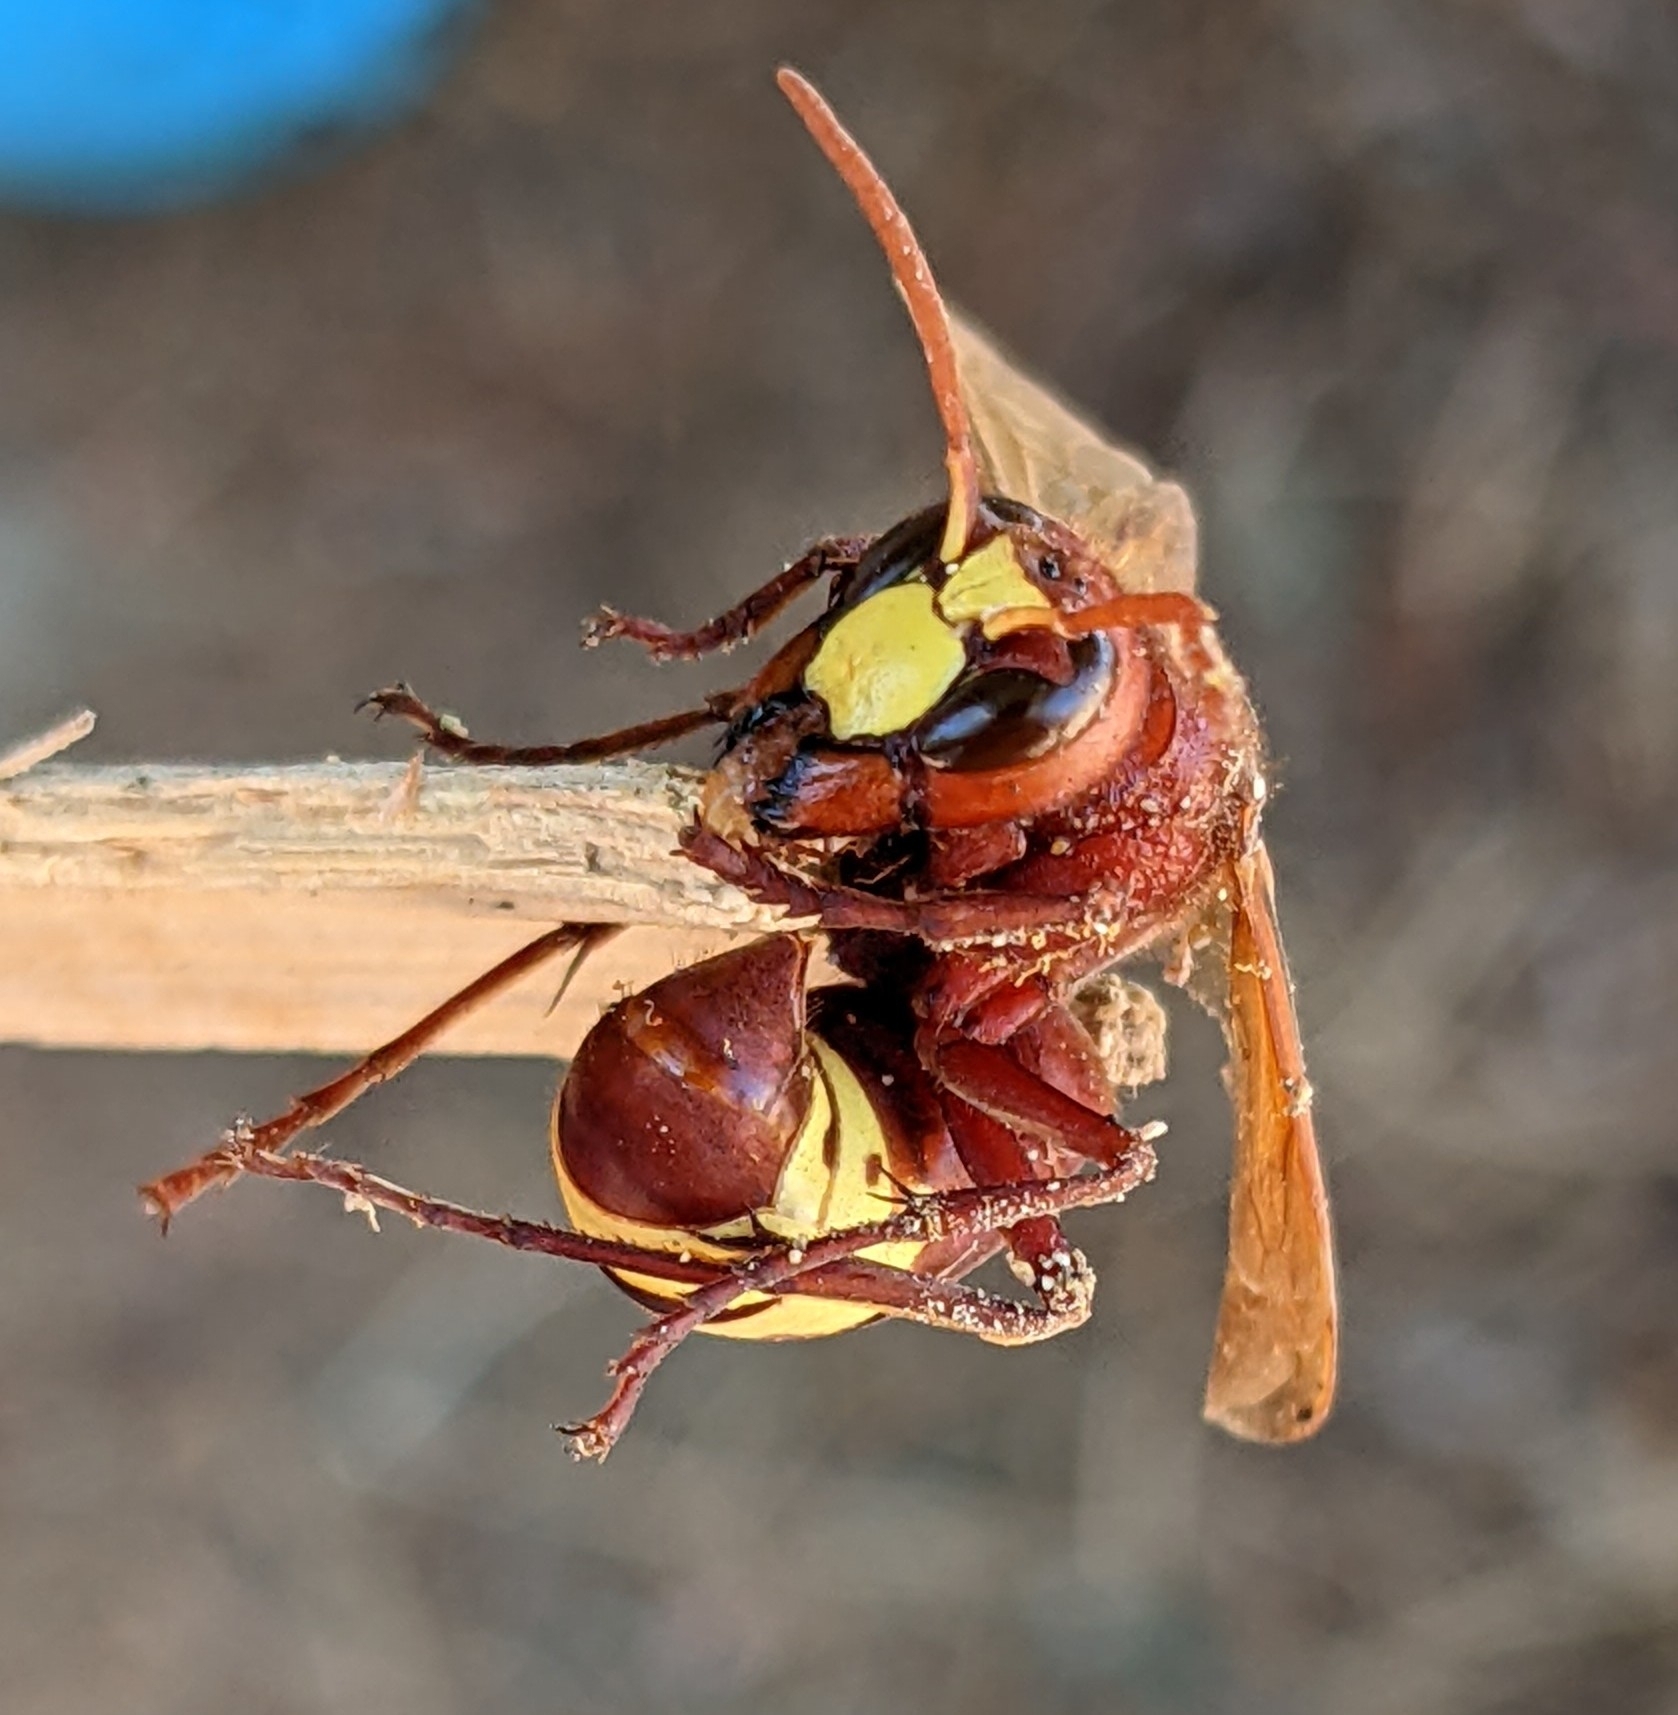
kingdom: Animalia
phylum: Arthropoda
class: Insecta
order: Hymenoptera
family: Vespidae
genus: Vespa
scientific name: Vespa orientalis
